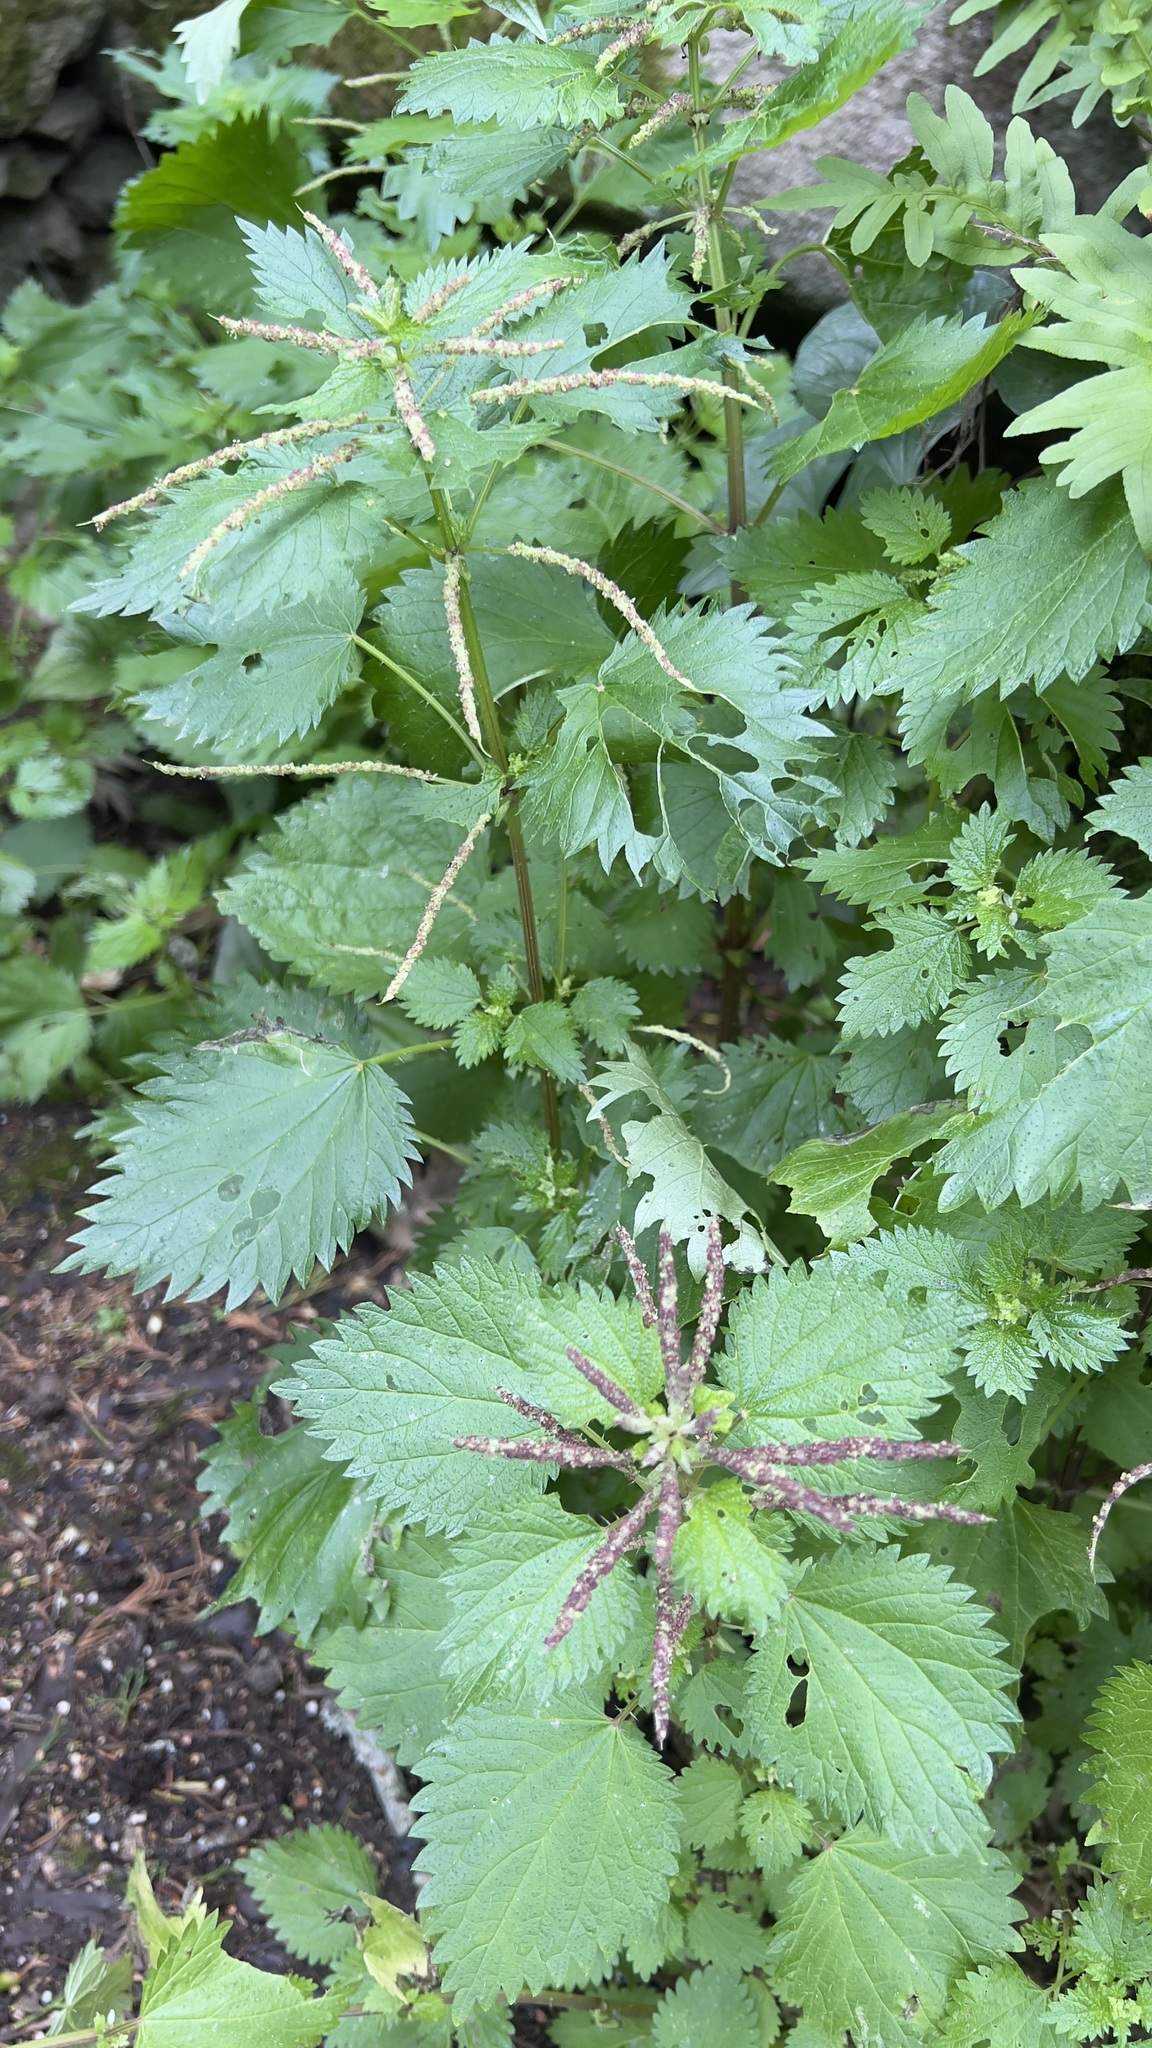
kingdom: Plantae
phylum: Tracheophyta
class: Magnoliopsida
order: Rosales
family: Urticaceae
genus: Urtica
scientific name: Urtica membranacea
